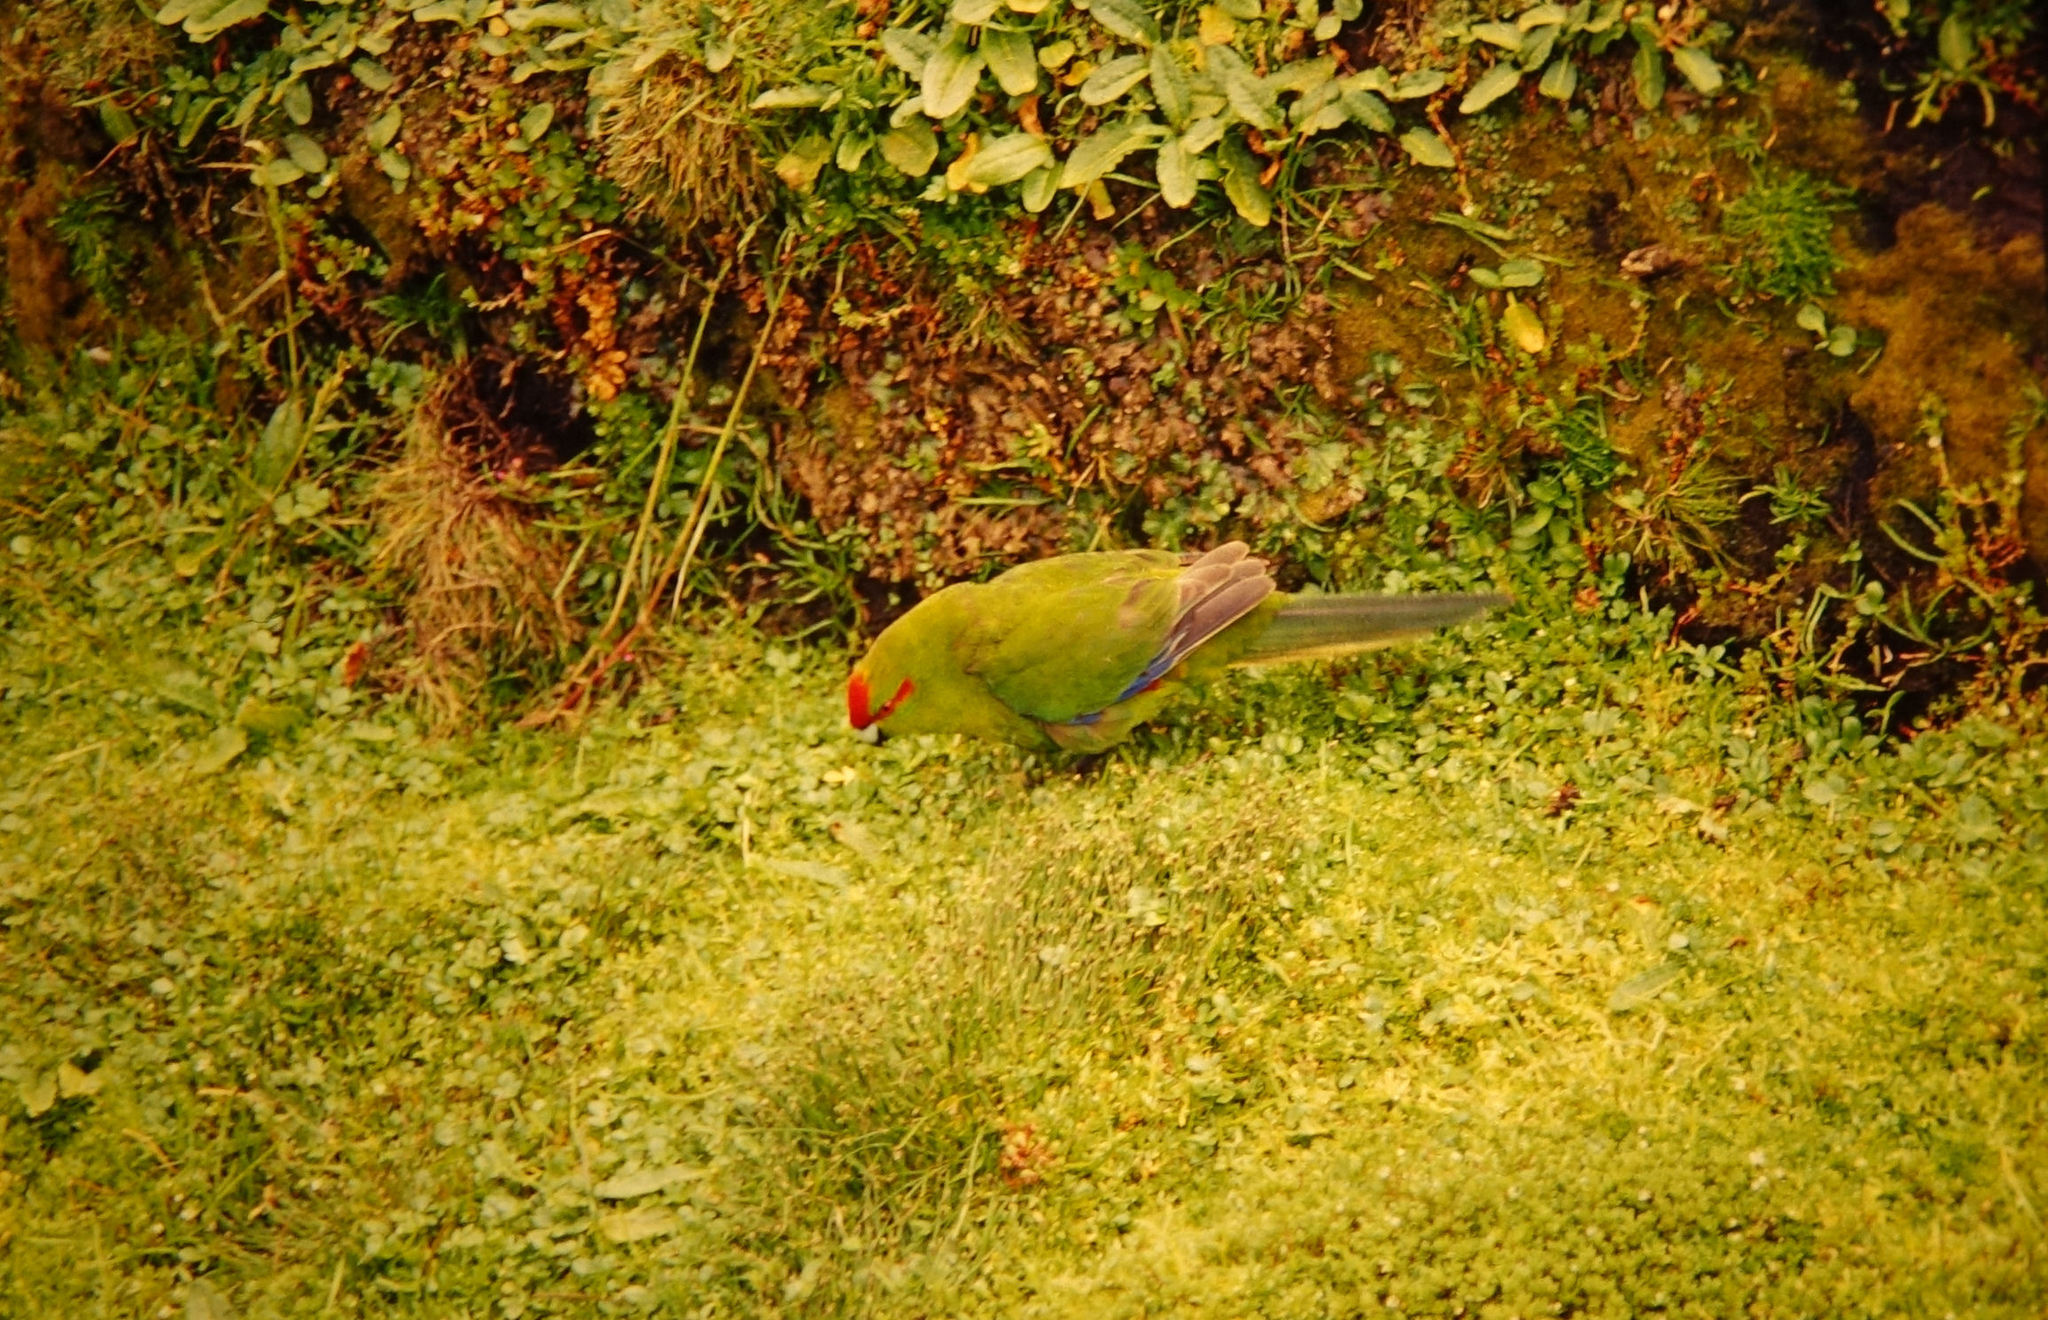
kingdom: Animalia
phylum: Chordata
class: Aves
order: Psittaciformes
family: Psittacidae
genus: Cyanoramphus
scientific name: Cyanoramphus novaezelandiae
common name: Red-fronted parakeet
